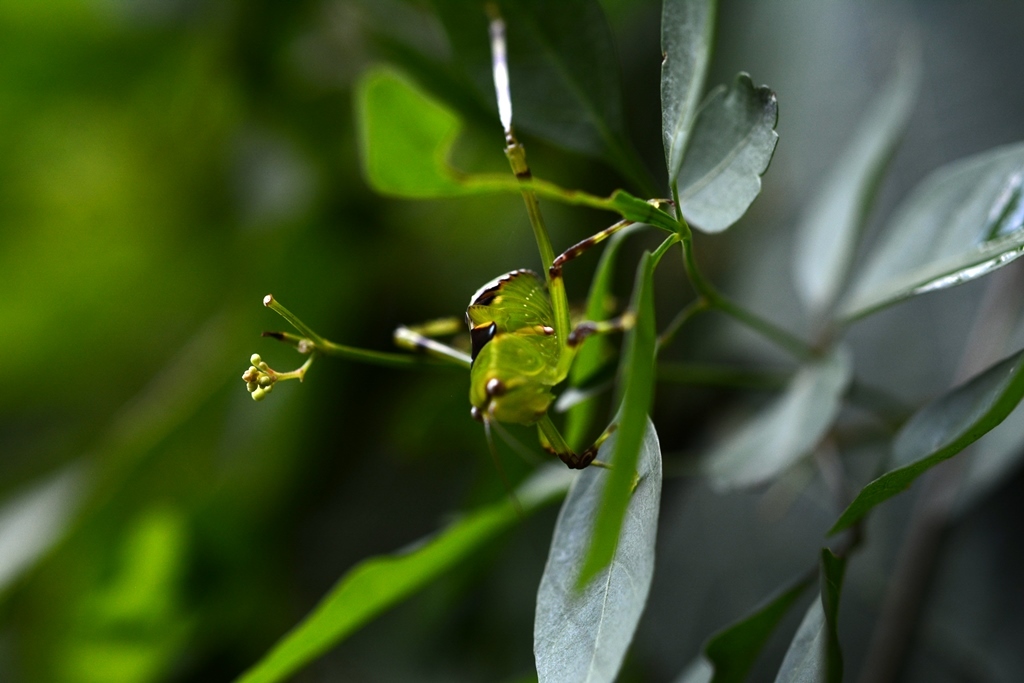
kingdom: Animalia
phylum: Arthropoda
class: Insecta
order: Orthoptera
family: Tettigoniidae
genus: Stilpnochlora
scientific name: Stilpnochlora thoracica
